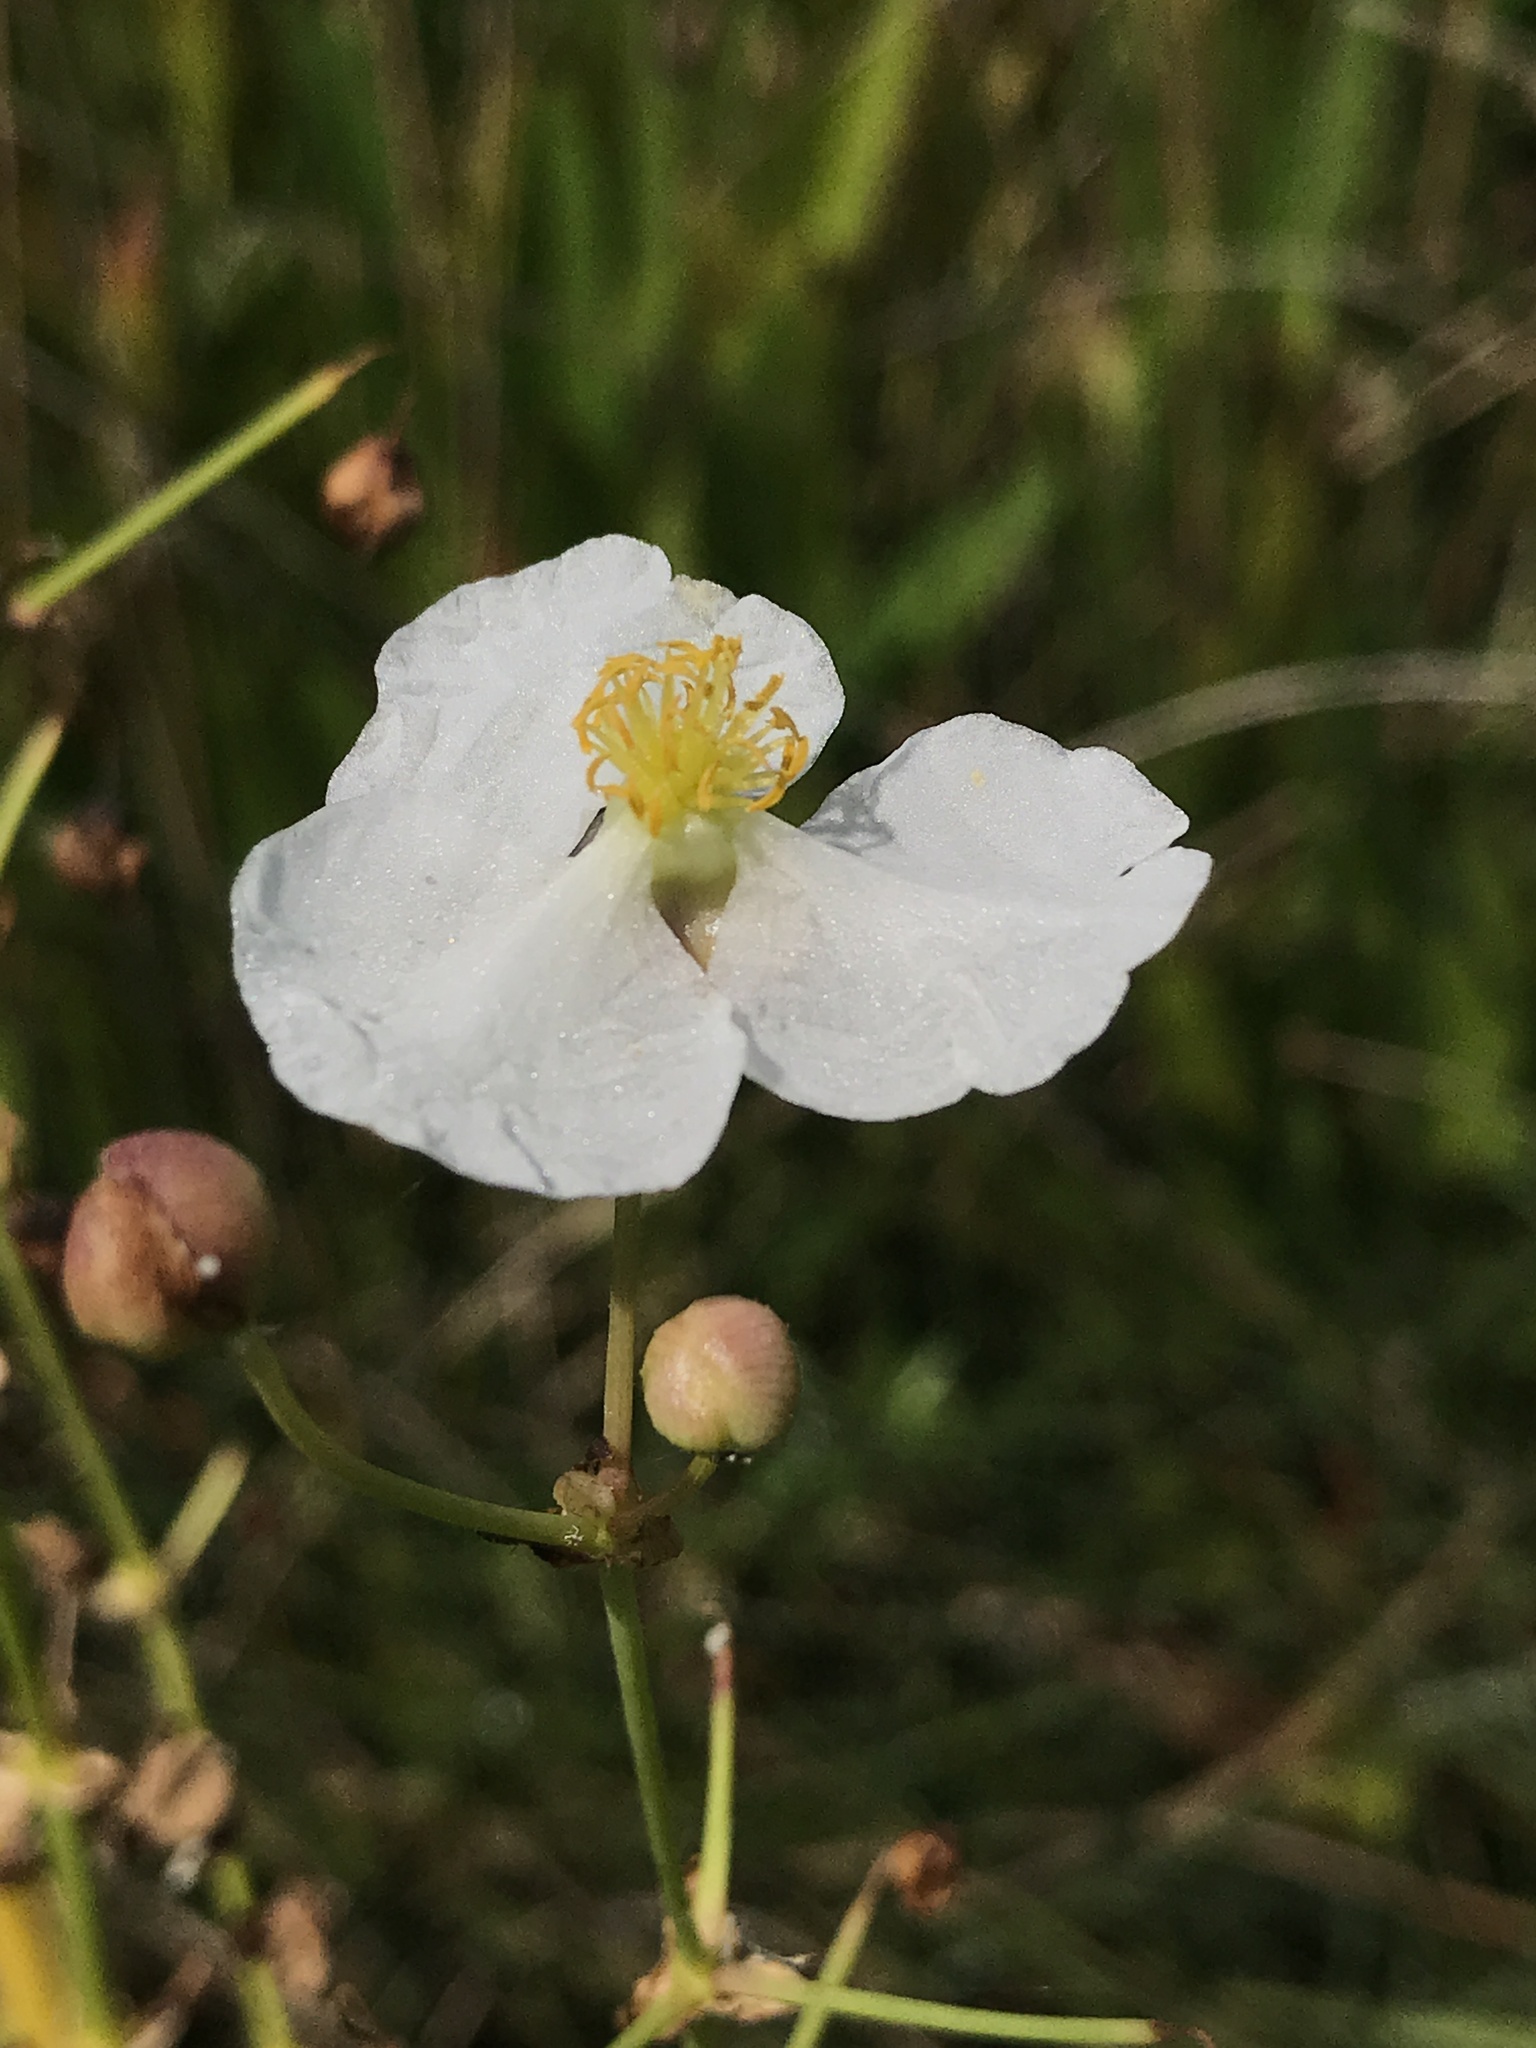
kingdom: Plantae
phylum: Tracheophyta
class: Liliopsida
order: Alismatales
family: Alismataceae
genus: Sagittaria
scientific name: Sagittaria lancifolia
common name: Lance-leaf arrowhead
